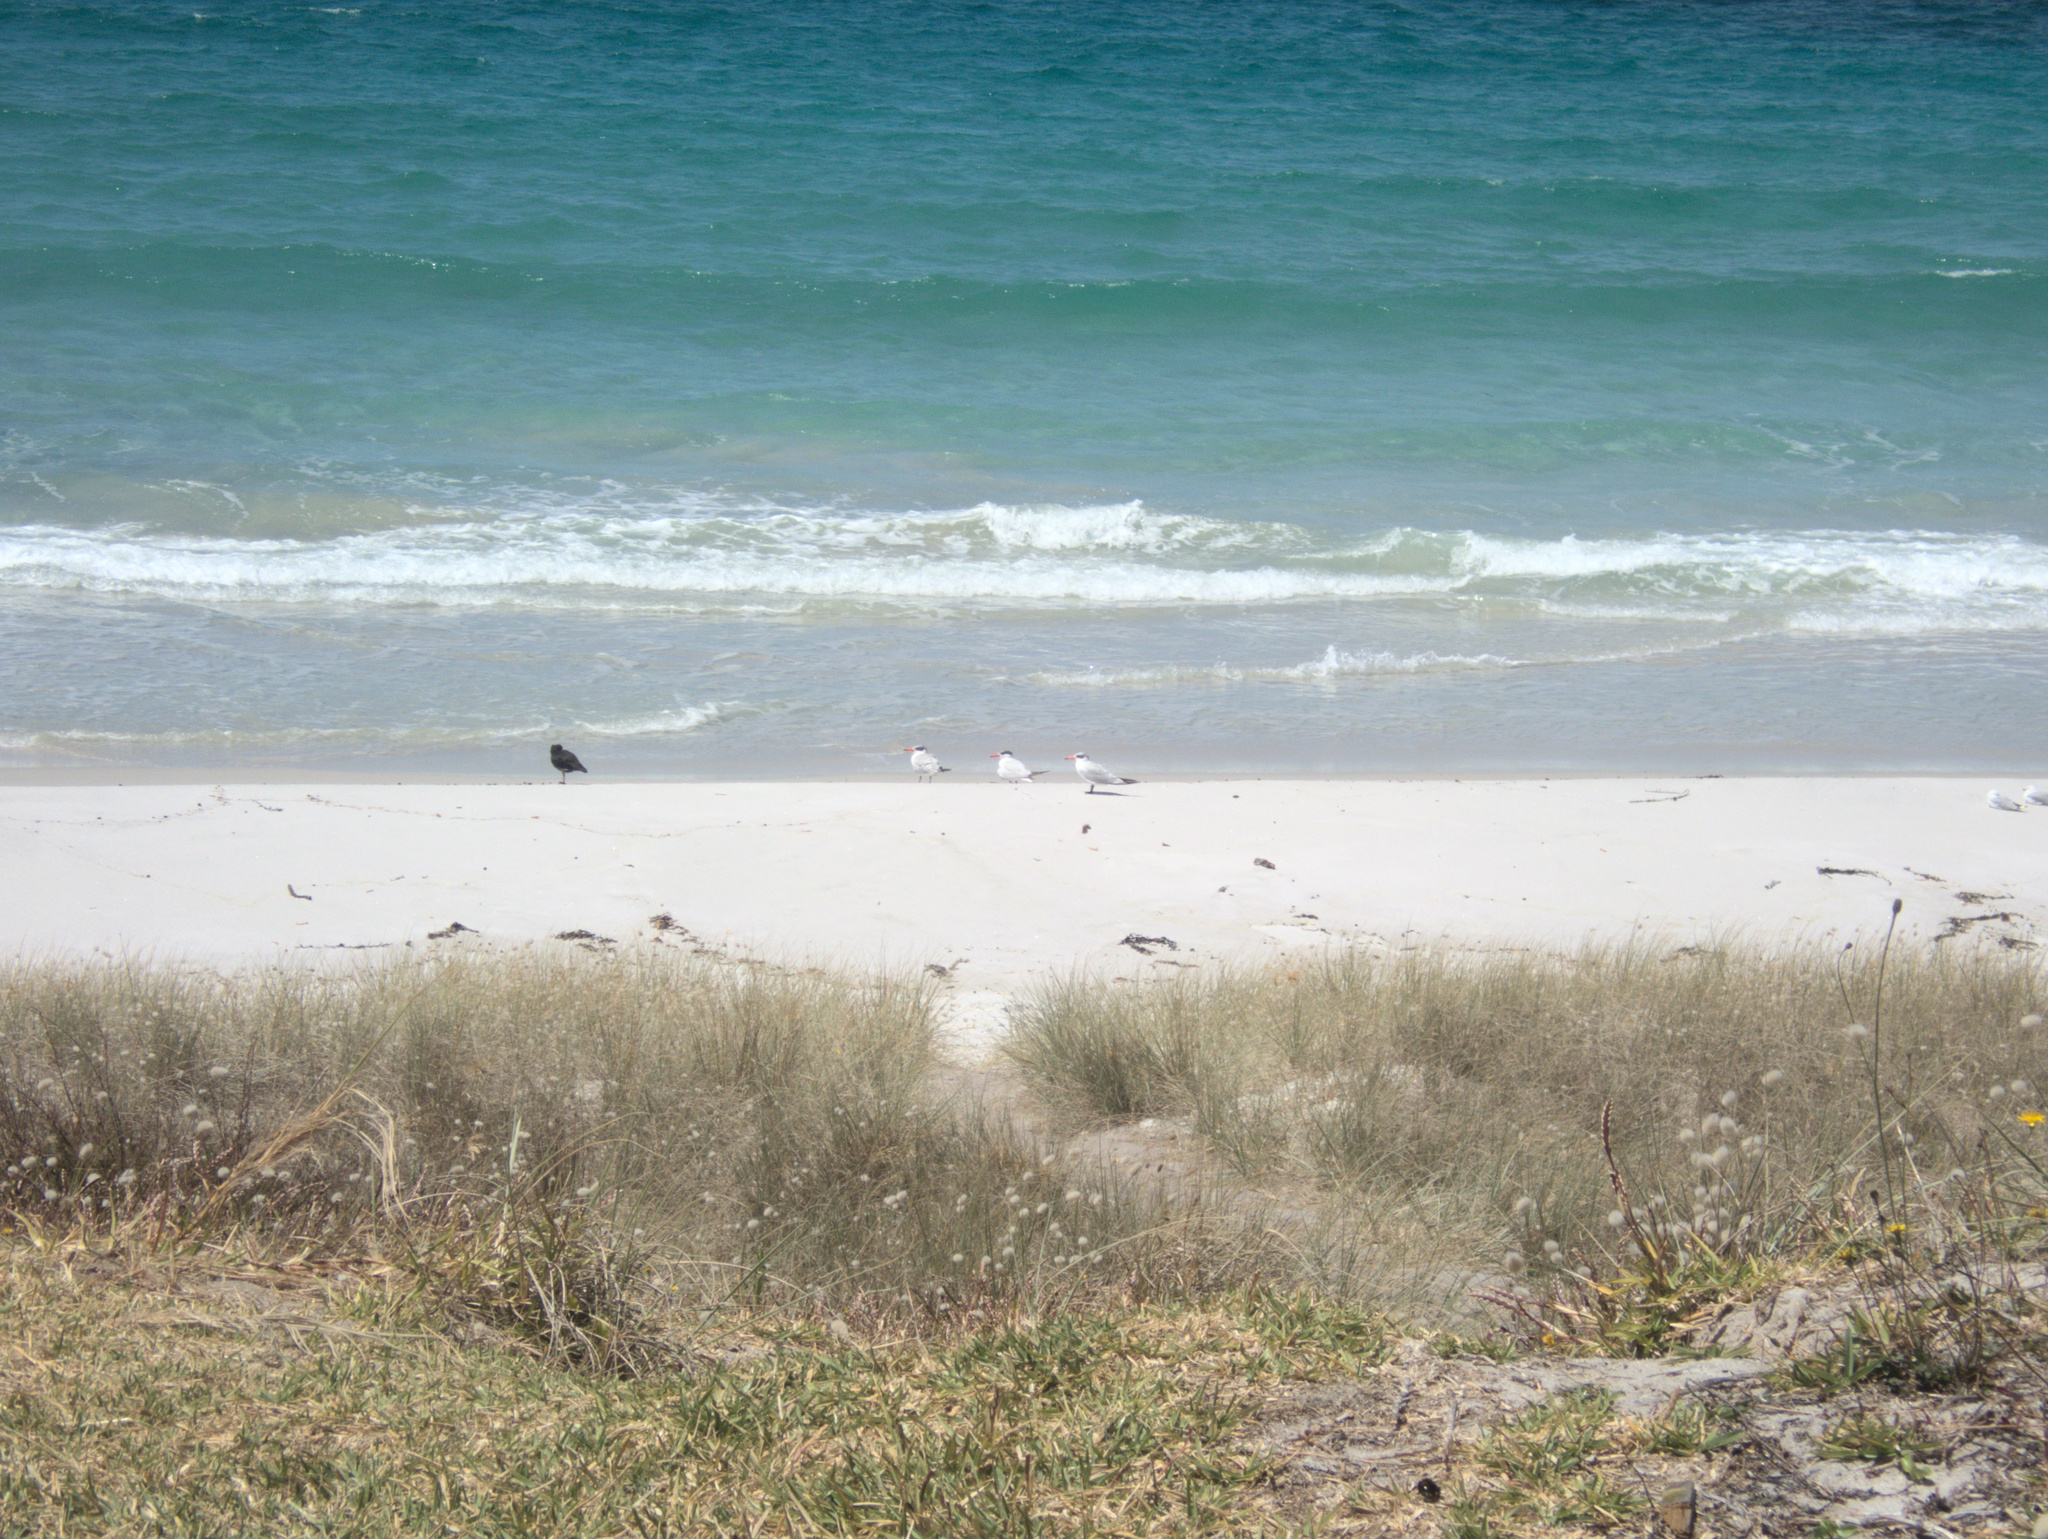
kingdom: Animalia
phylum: Chordata
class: Aves
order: Charadriiformes
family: Laridae
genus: Hydroprogne
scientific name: Hydroprogne caspia
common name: Caspian tern
